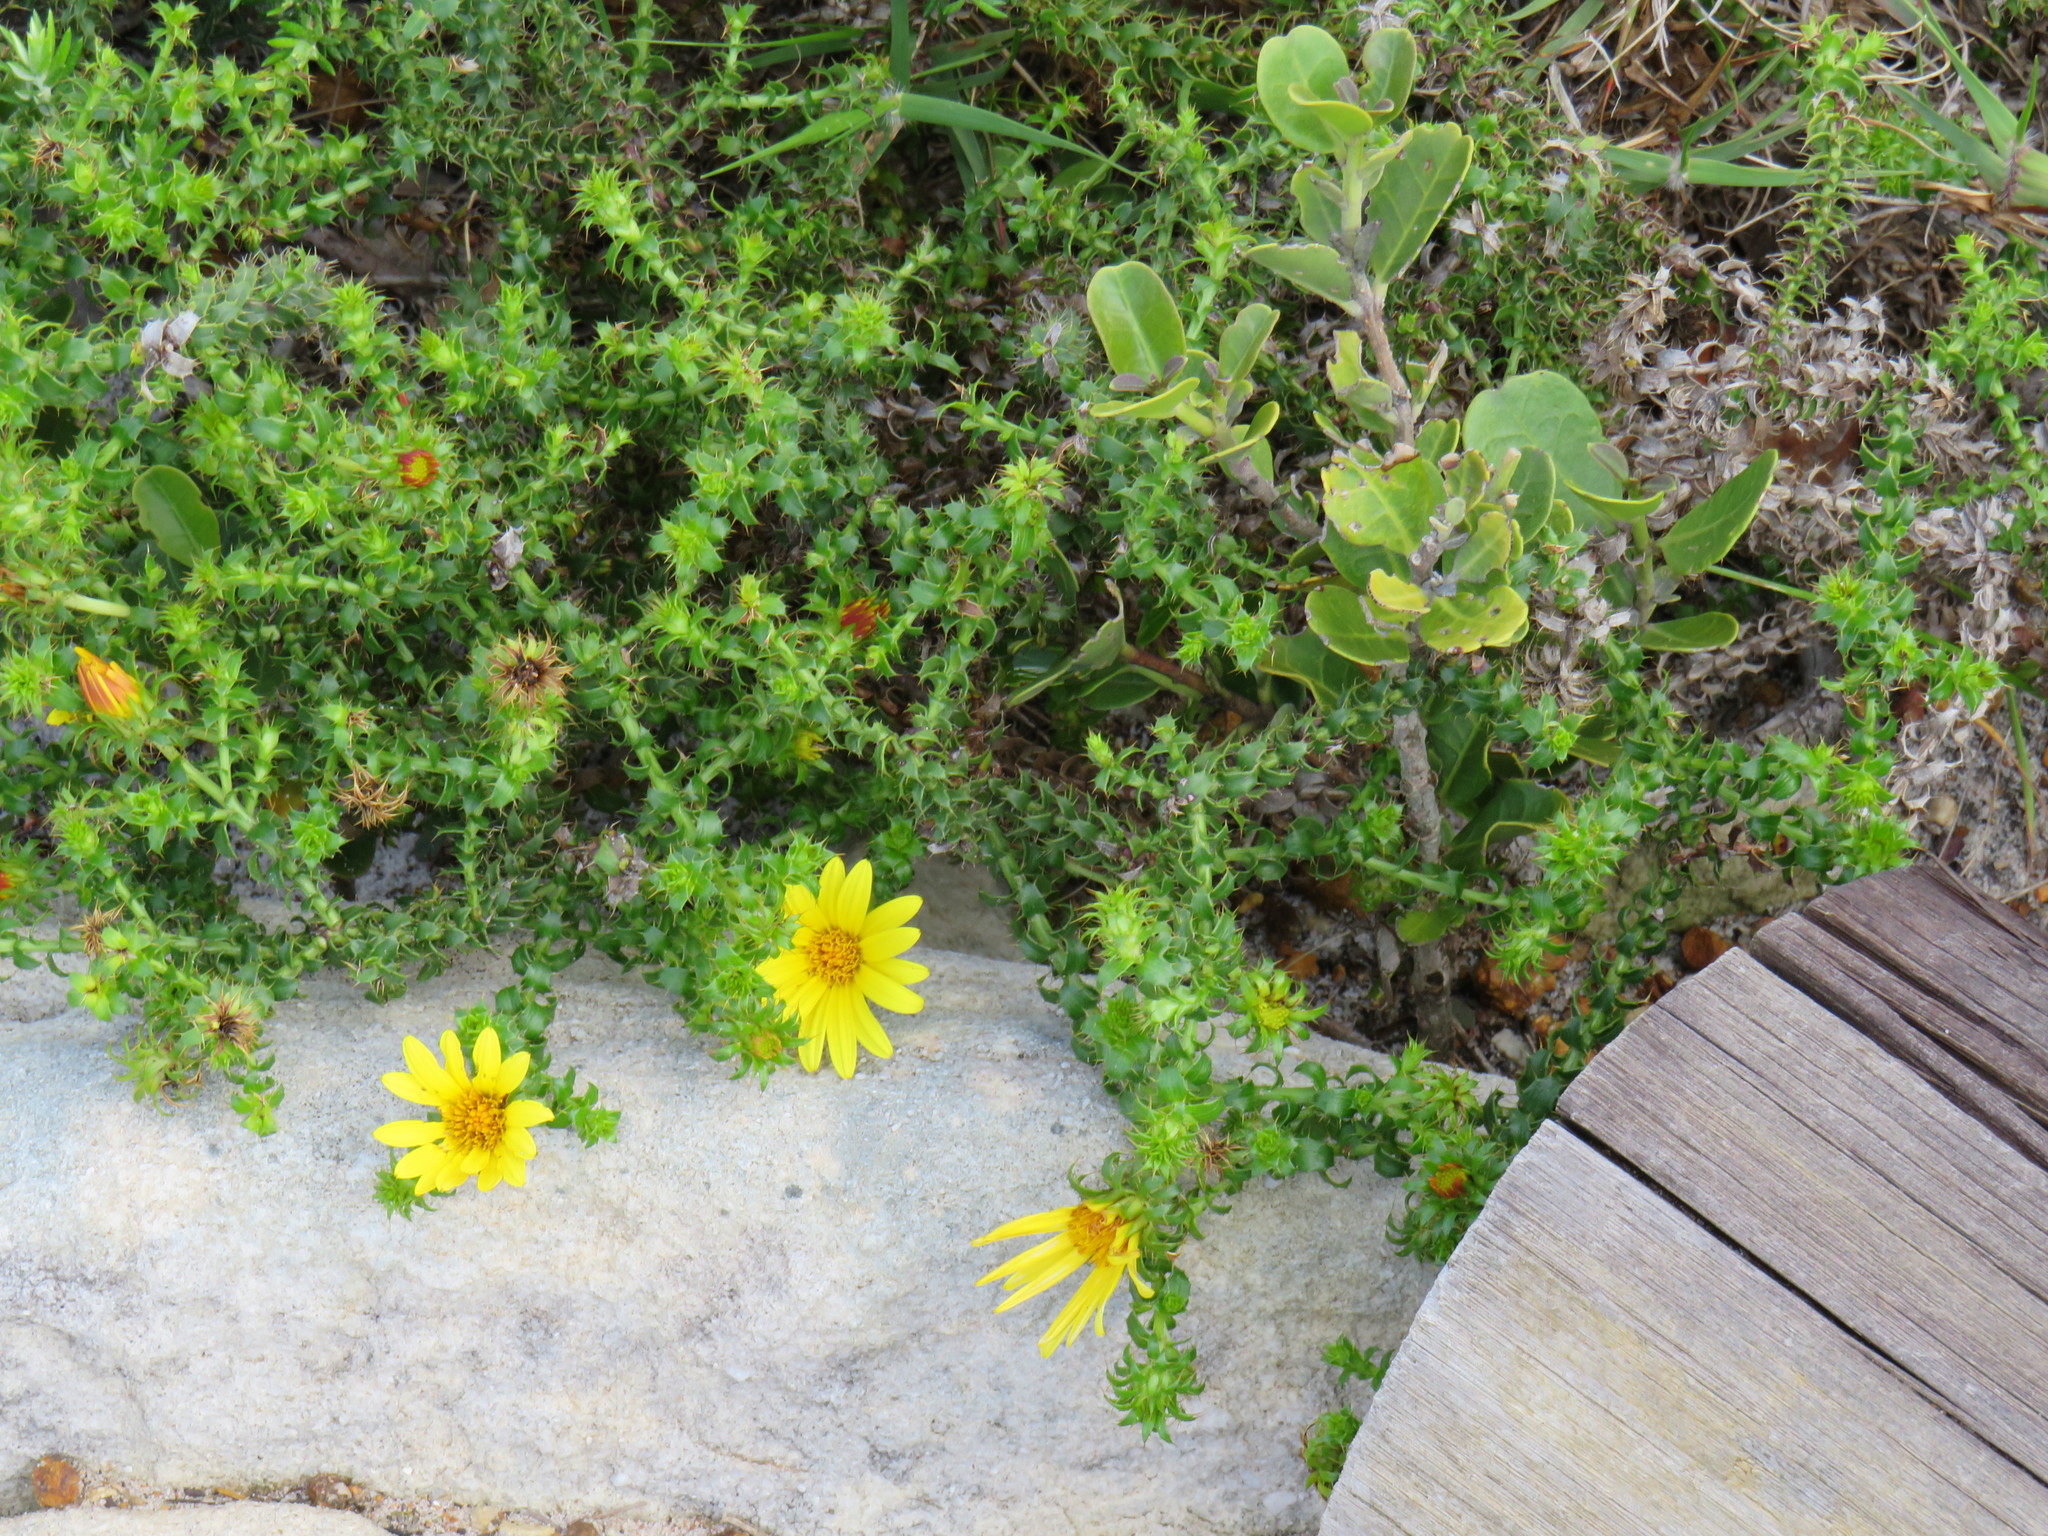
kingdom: Plantae
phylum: Tracheophyta
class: Magnoliopsida
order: Asterales
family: Asteraceae
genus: Cullumia
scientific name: Cullumia setosa
